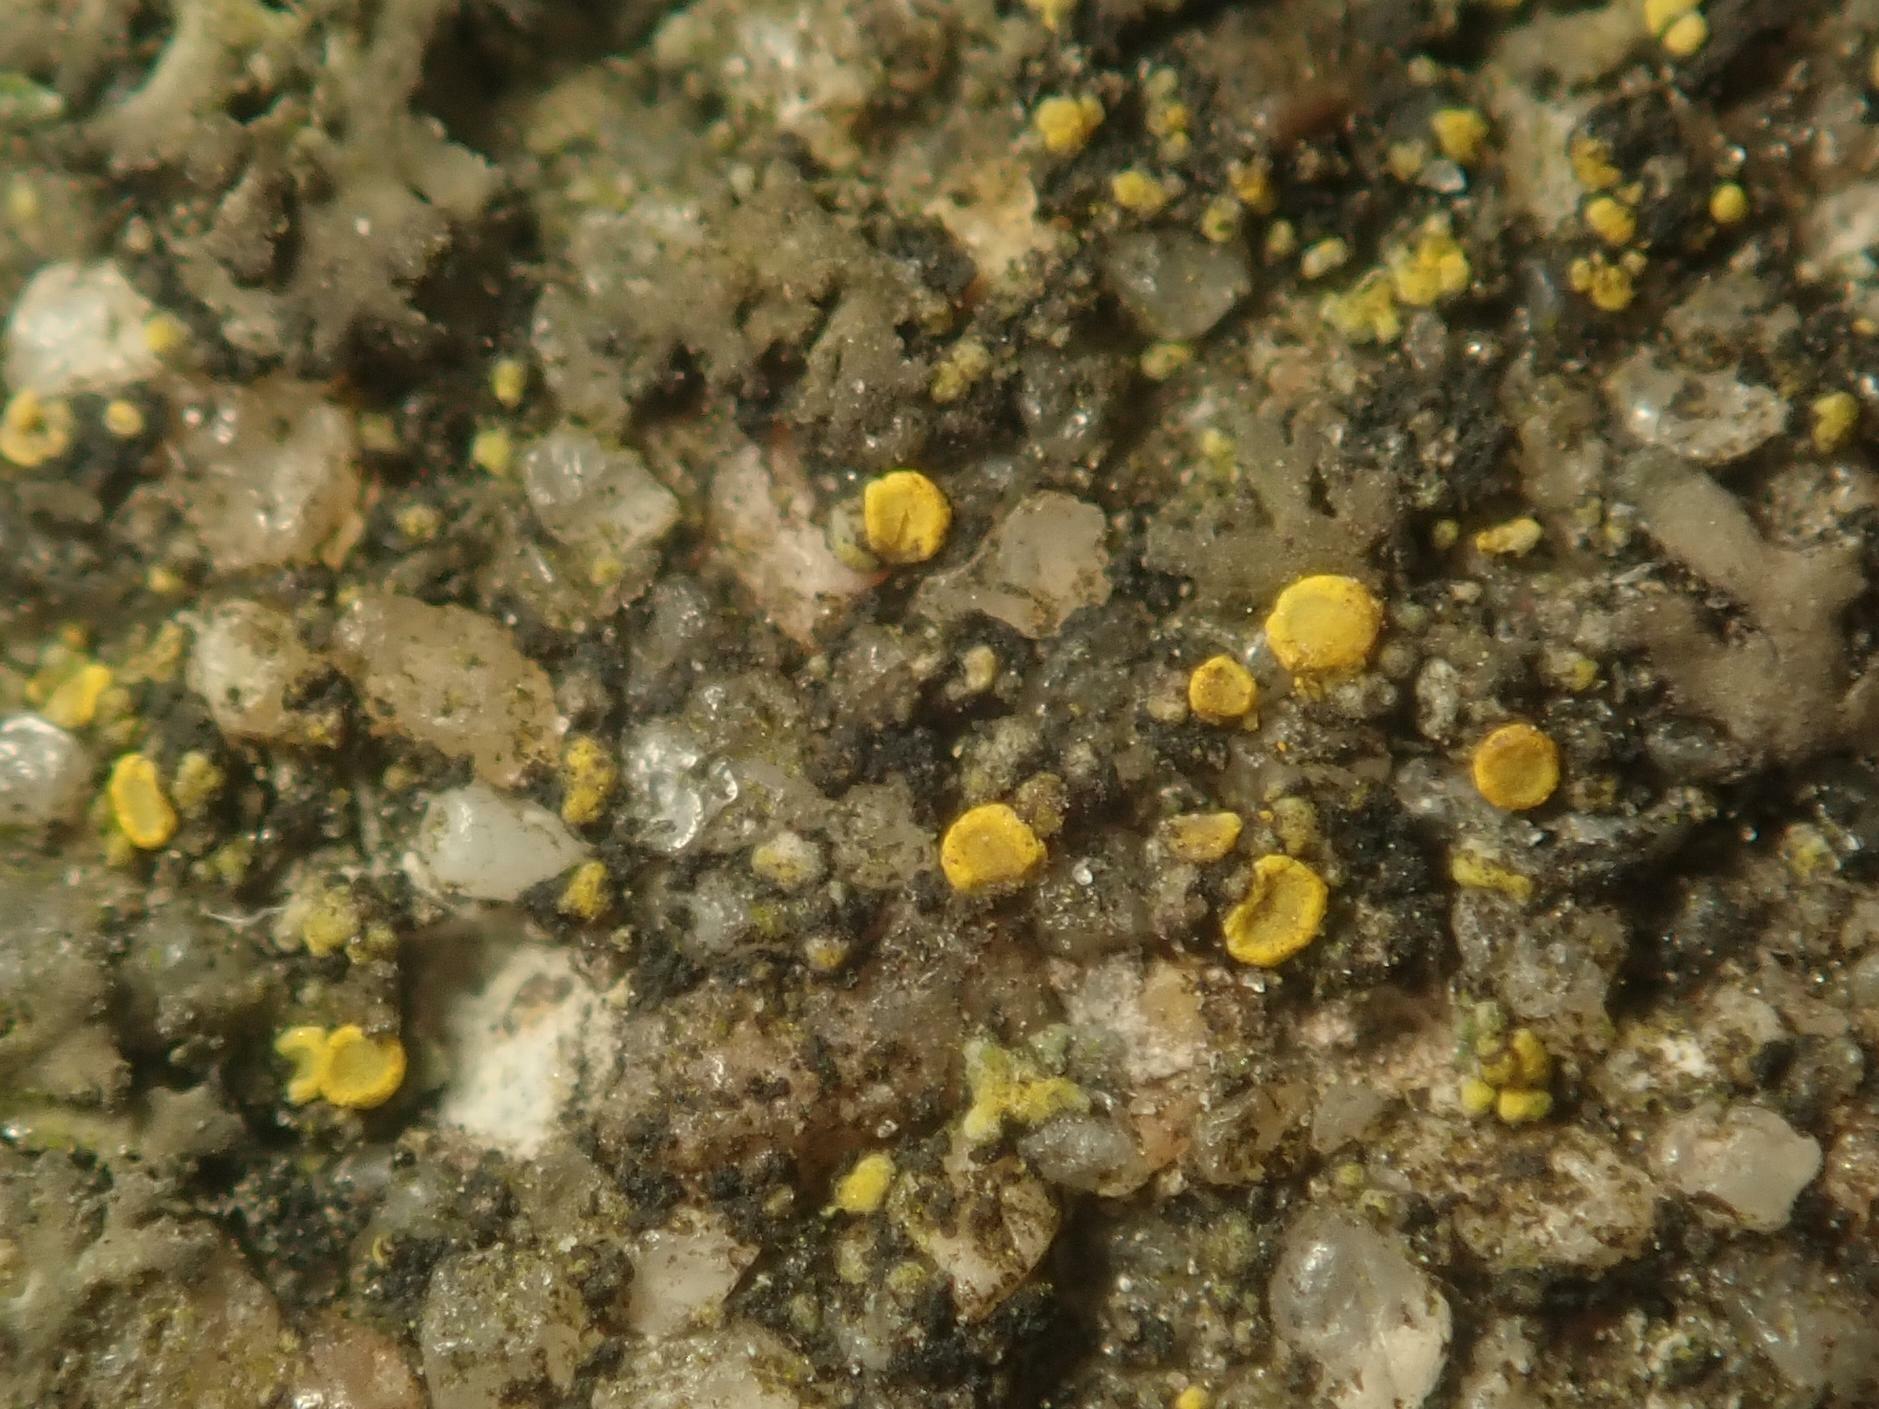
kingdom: Fungi
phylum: Ascomycota
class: Candelariomycetes
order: Candelariales
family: Candelariaceae
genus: Candelariella
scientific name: Candelariella aurella
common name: Hidden goldspeck lichen
